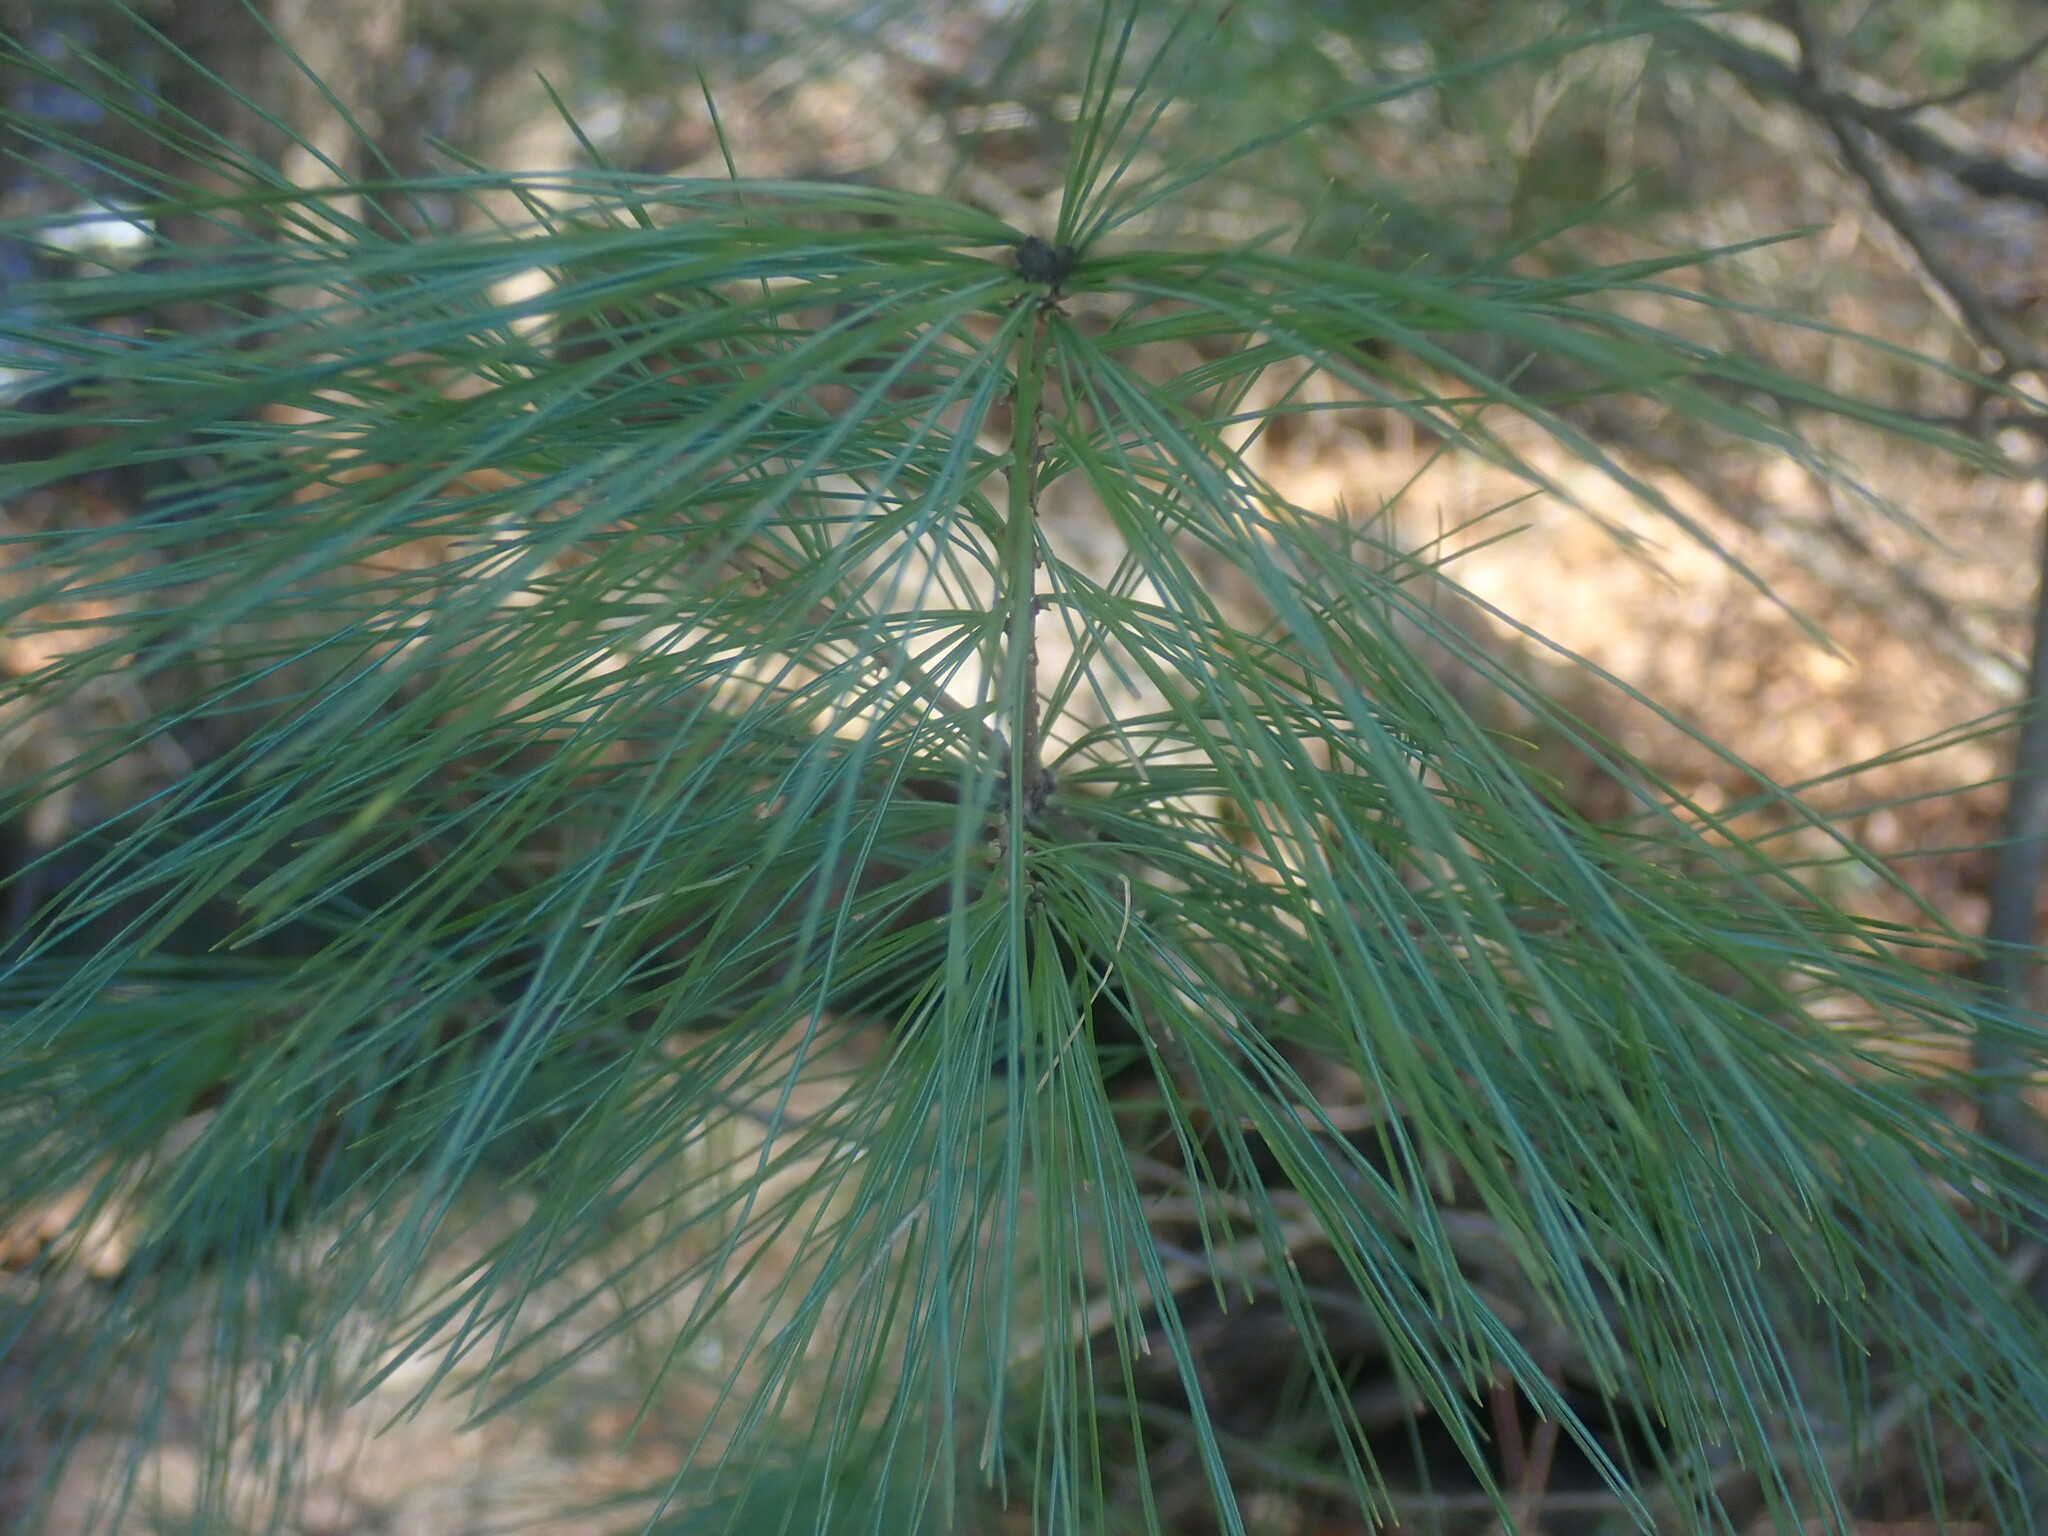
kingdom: Plantae
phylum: Tracheophyta
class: Pinopsida
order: Pinales
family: Pinaceae
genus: Pinus
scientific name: Pinus strobus
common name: Weymouth pine
